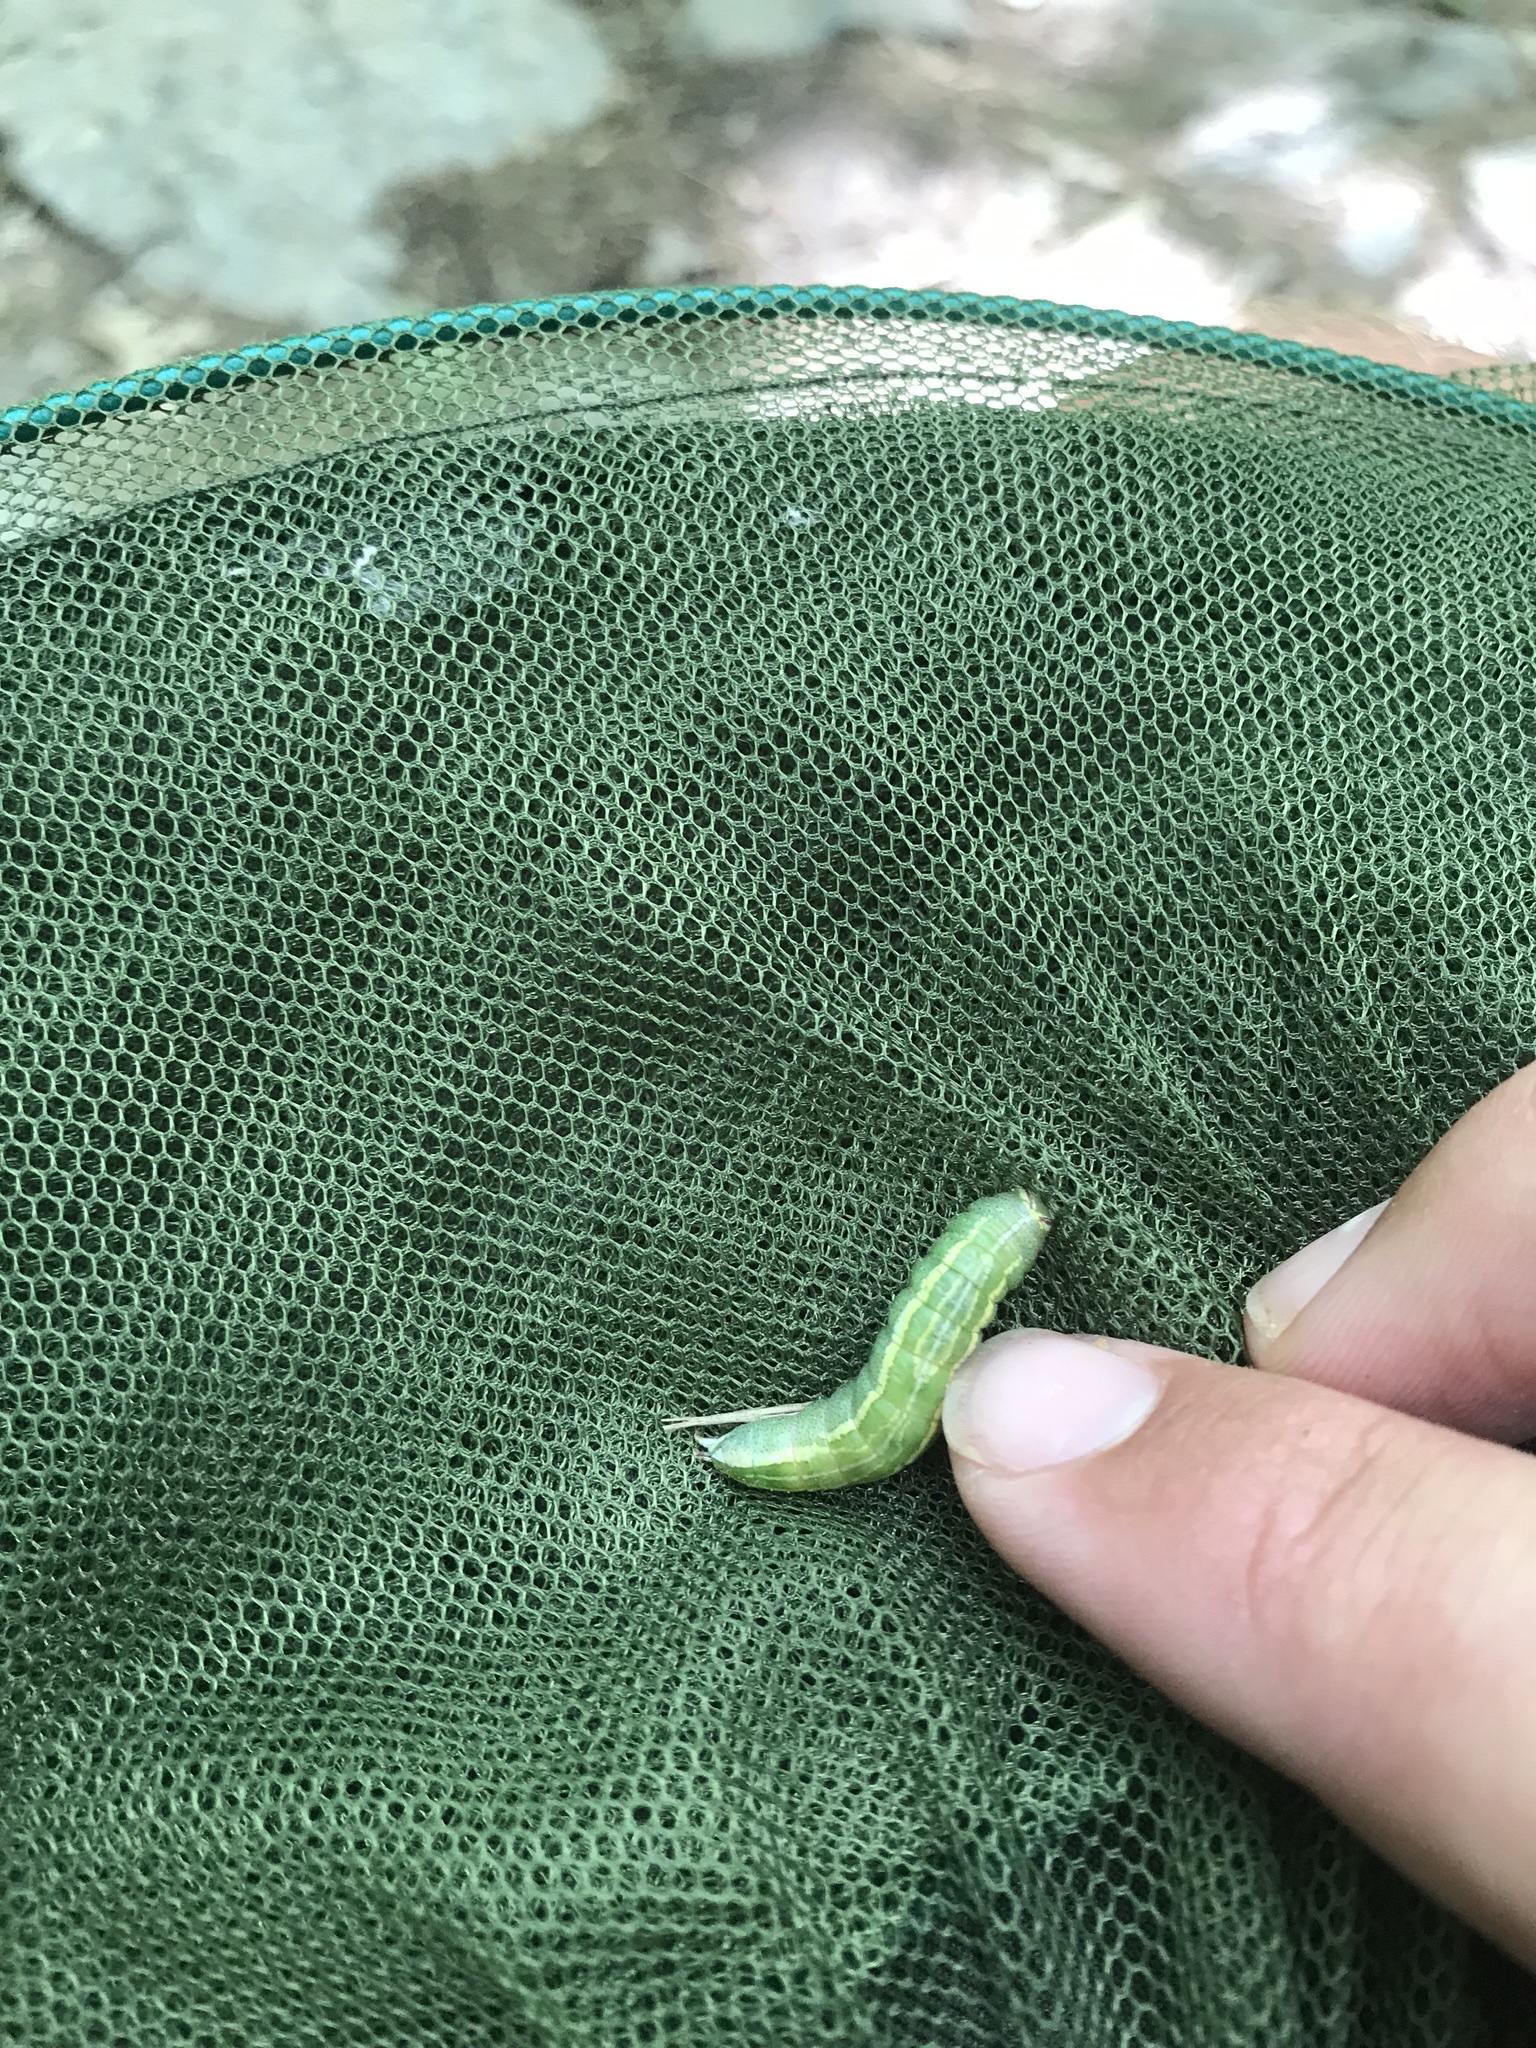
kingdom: Animalia
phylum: Arthropoda
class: Insecta
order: Lepidoptera
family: Notodontidae
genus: Disphragis
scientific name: Disphragis Cecrita guttivitta
